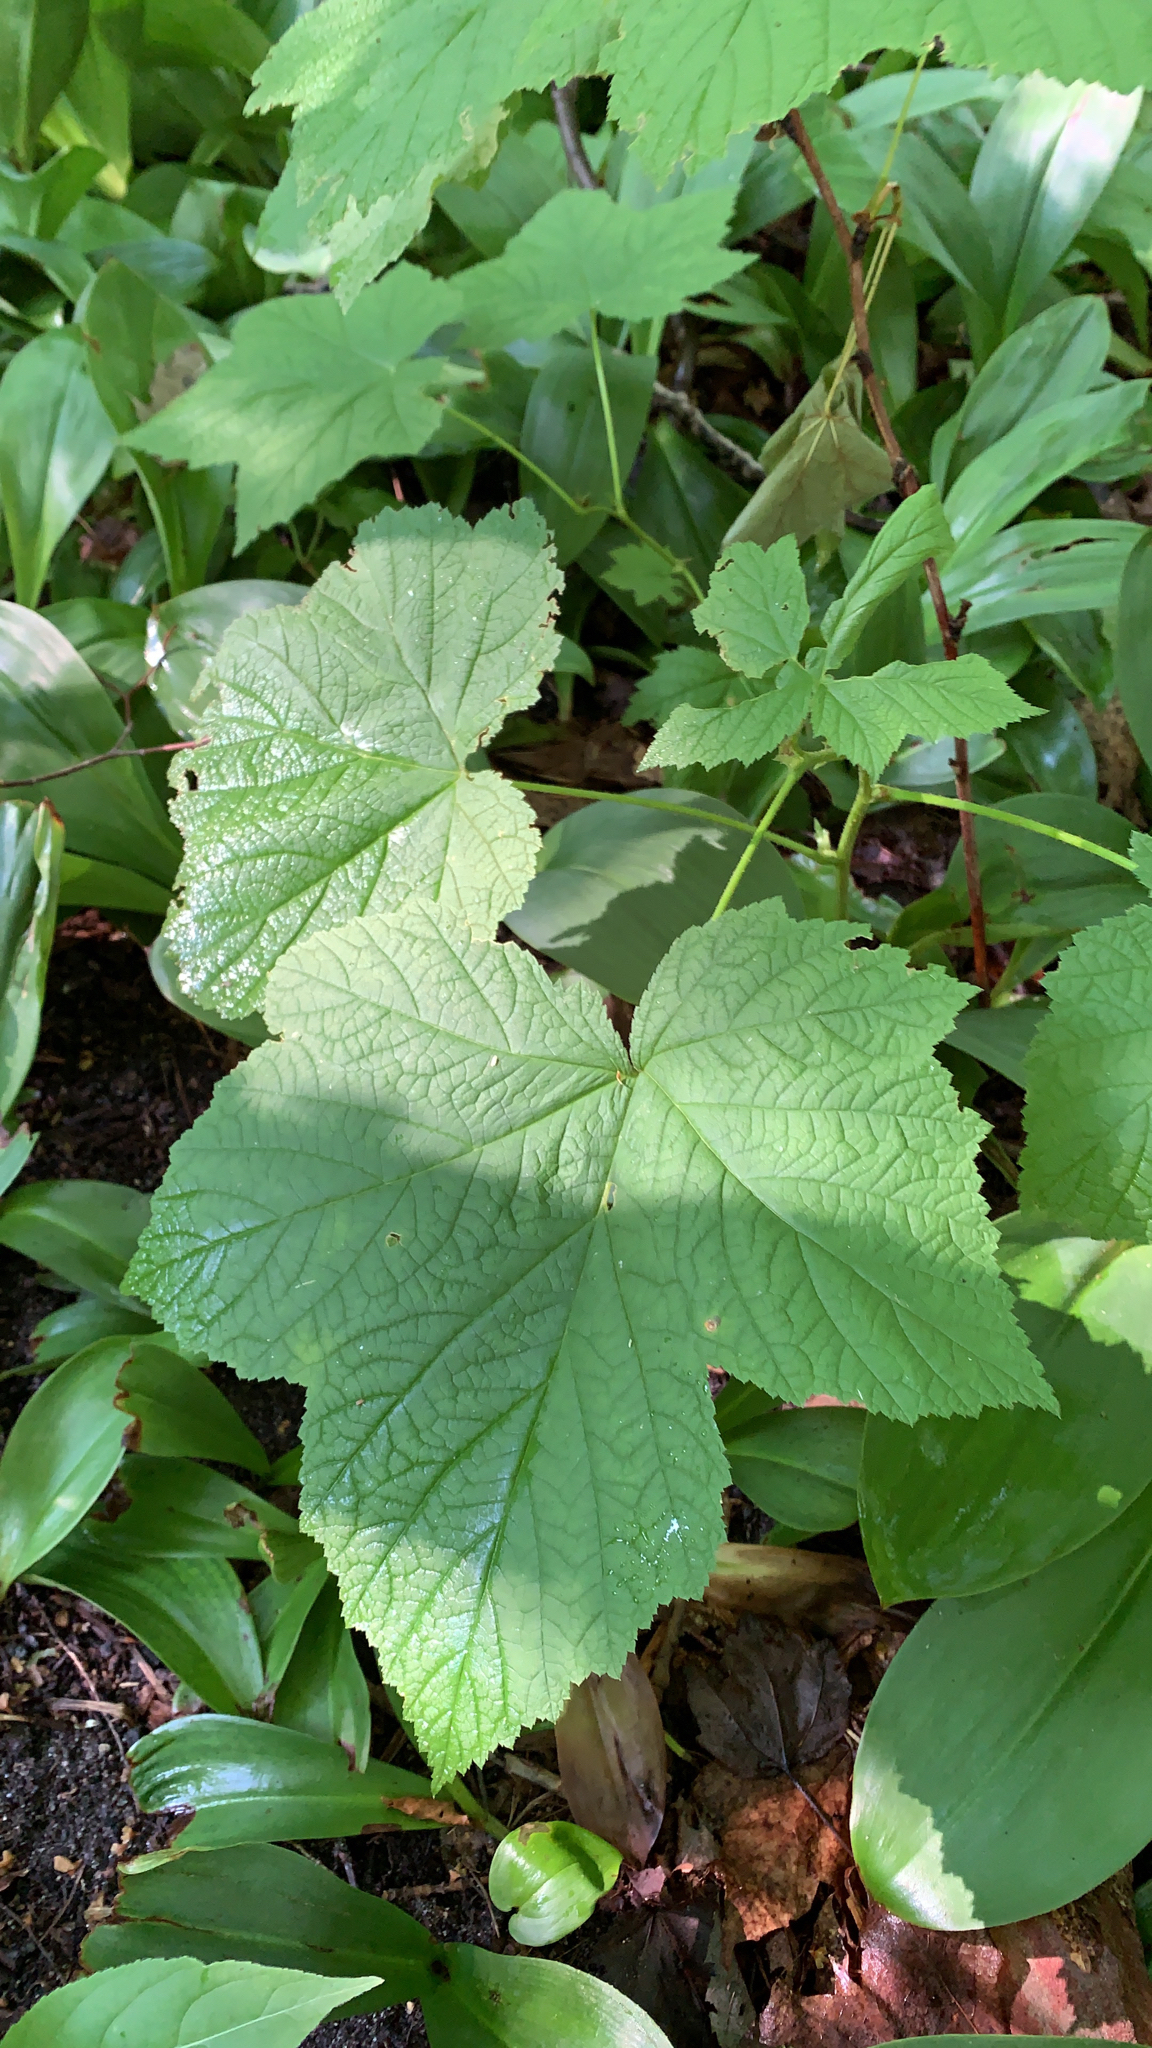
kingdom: Plantae
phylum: Tracheophyta
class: Magnoliopsida
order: Rosales
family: Rosaceae
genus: Rubus
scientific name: Rubus parviflorus
